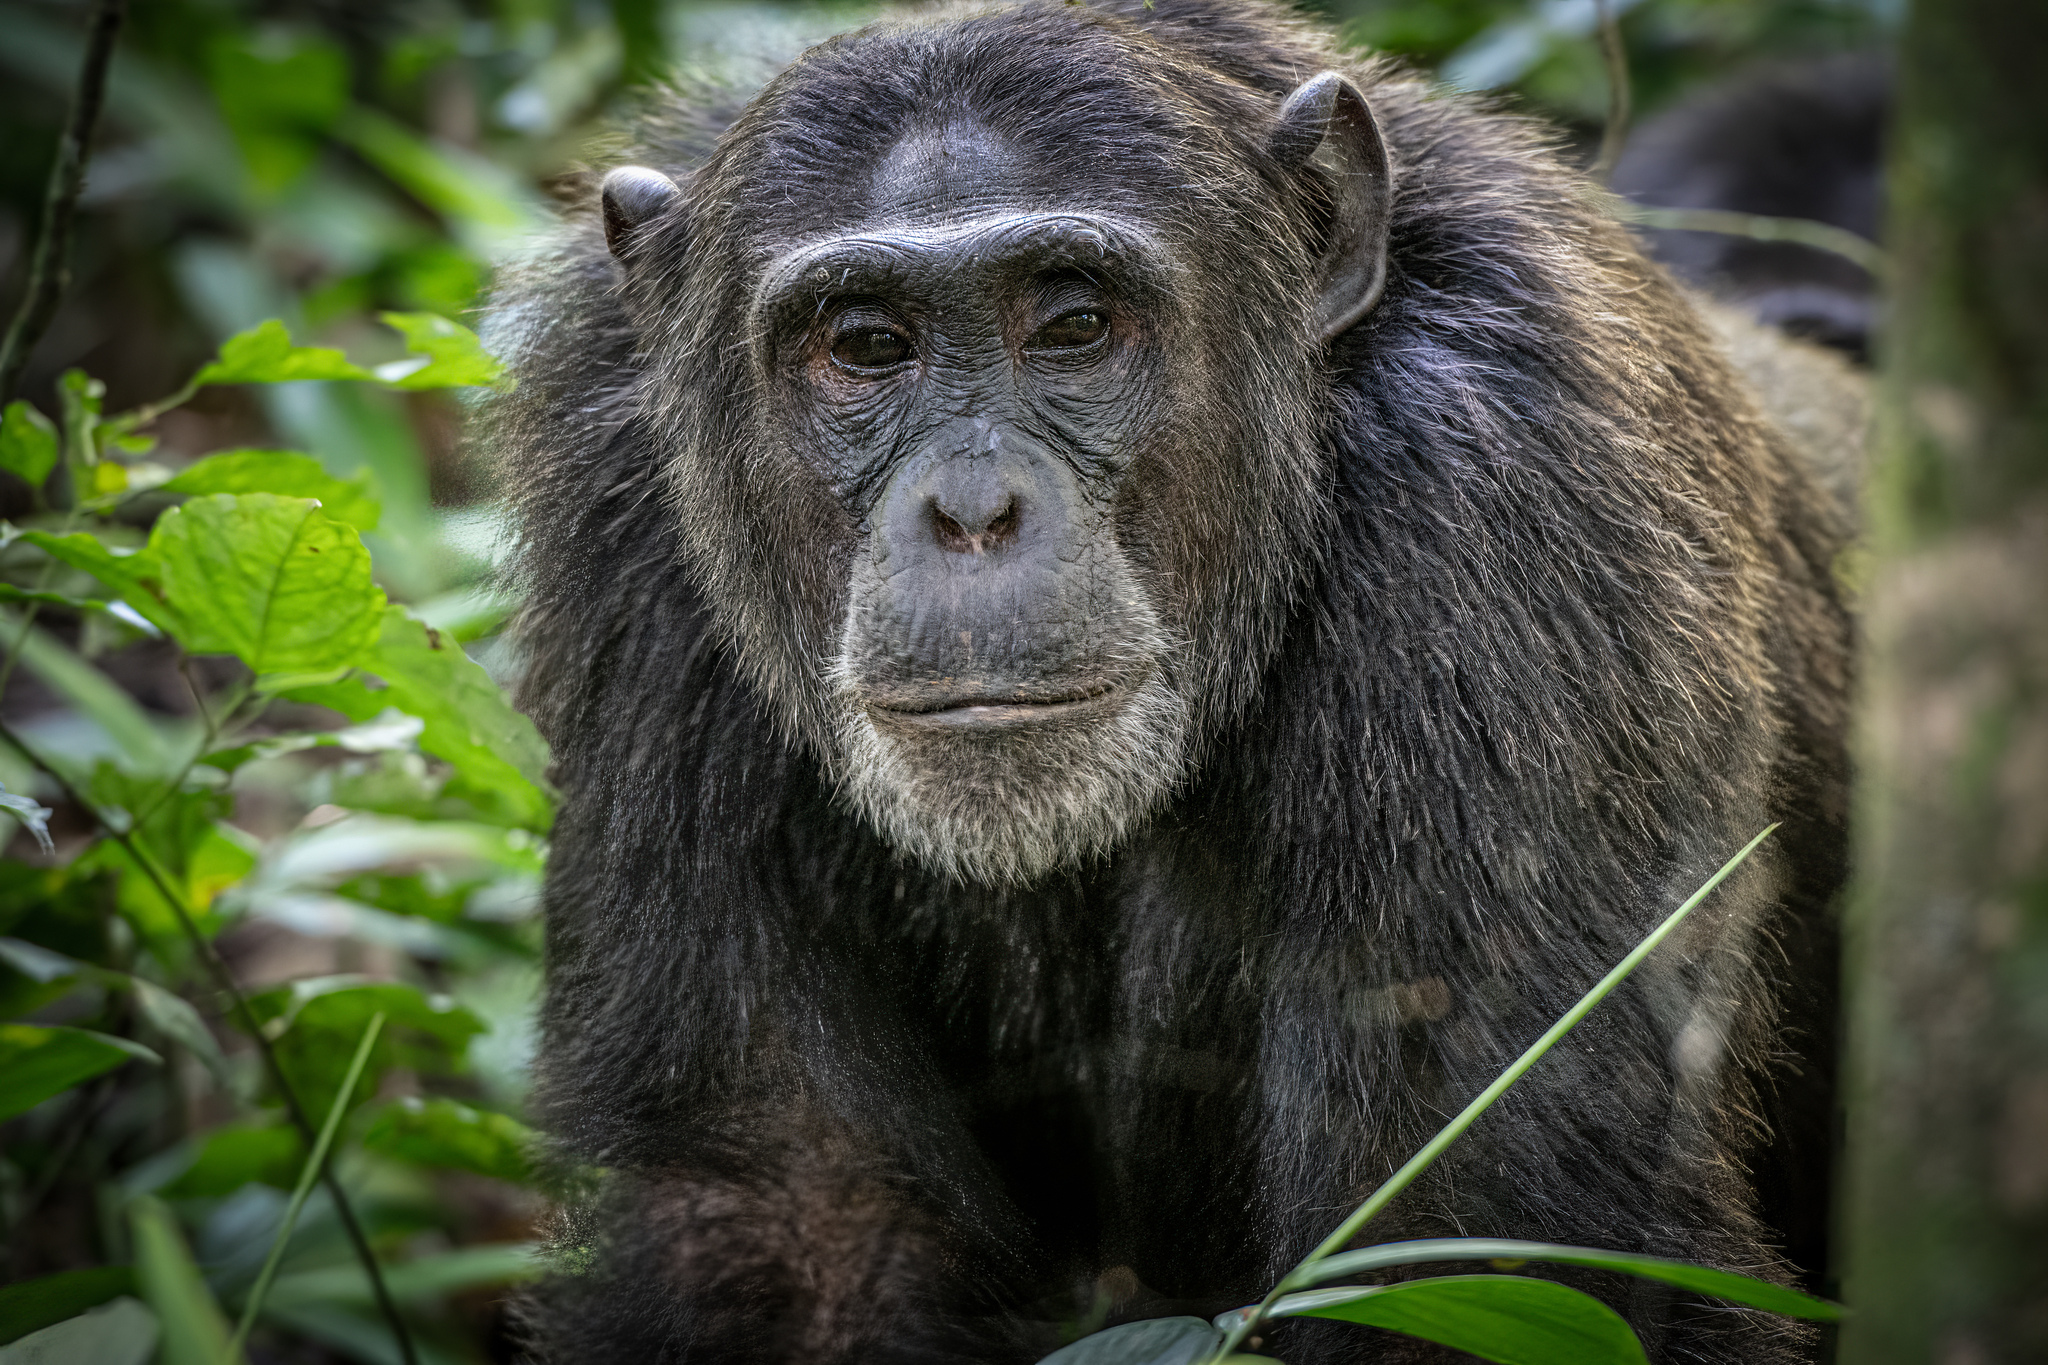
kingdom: Animalia
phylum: Chordata
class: Mammalia
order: Primates
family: Hominidae
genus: Pan
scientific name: Pan troglodytes
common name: Chimpanzee
